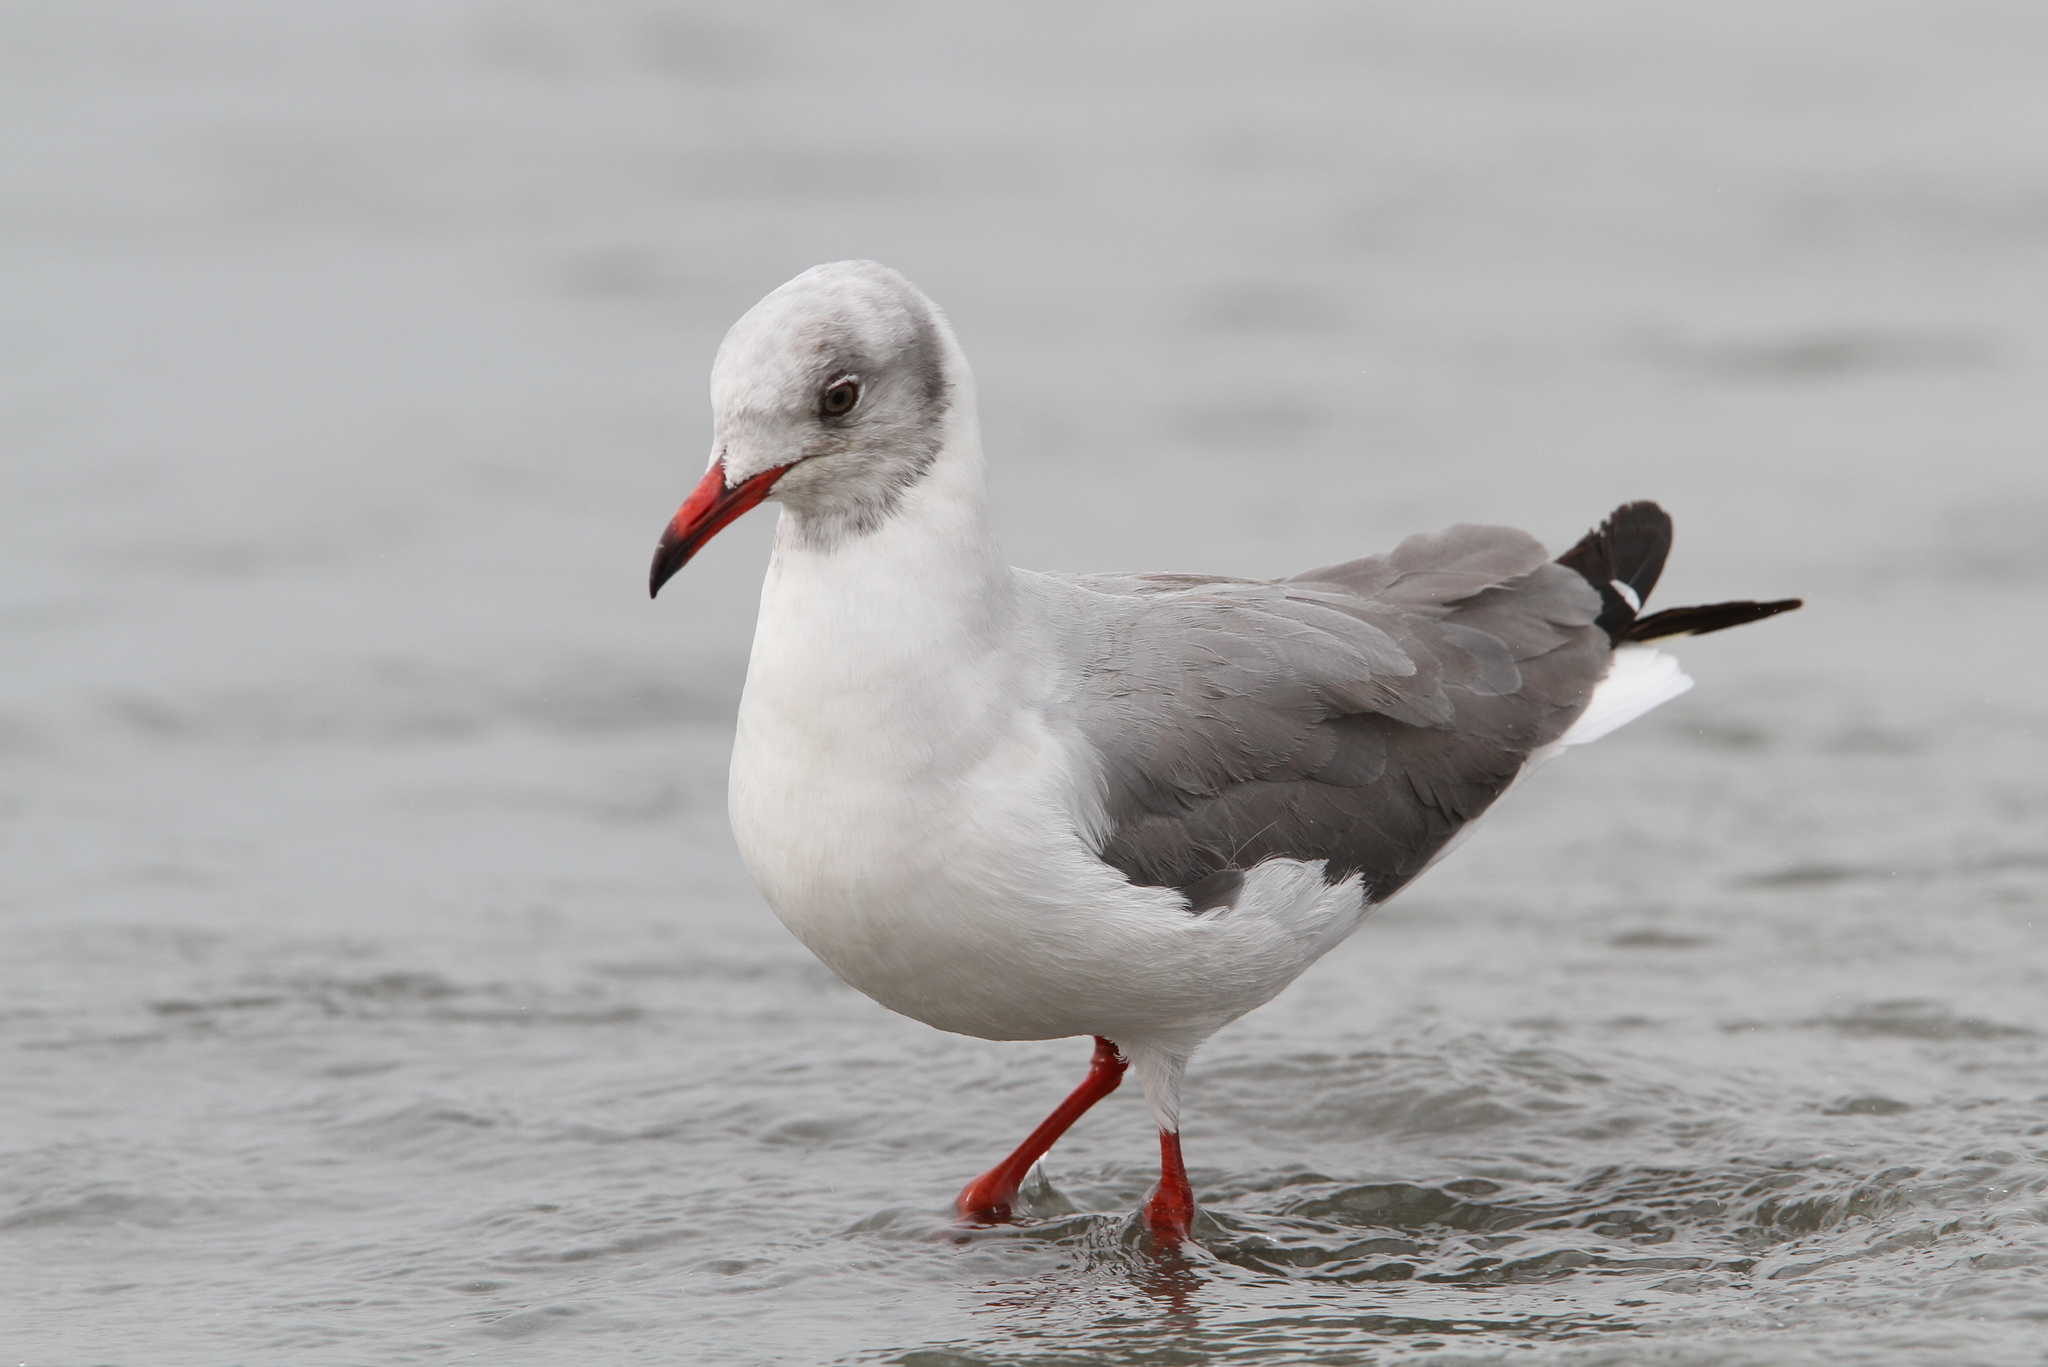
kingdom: Animalia
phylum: Chordata
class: Aves
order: Charadriiformes
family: Laridae
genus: Chroicocephalus
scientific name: Chroicocephalus cirrocephalus
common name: Grey-headed gull
